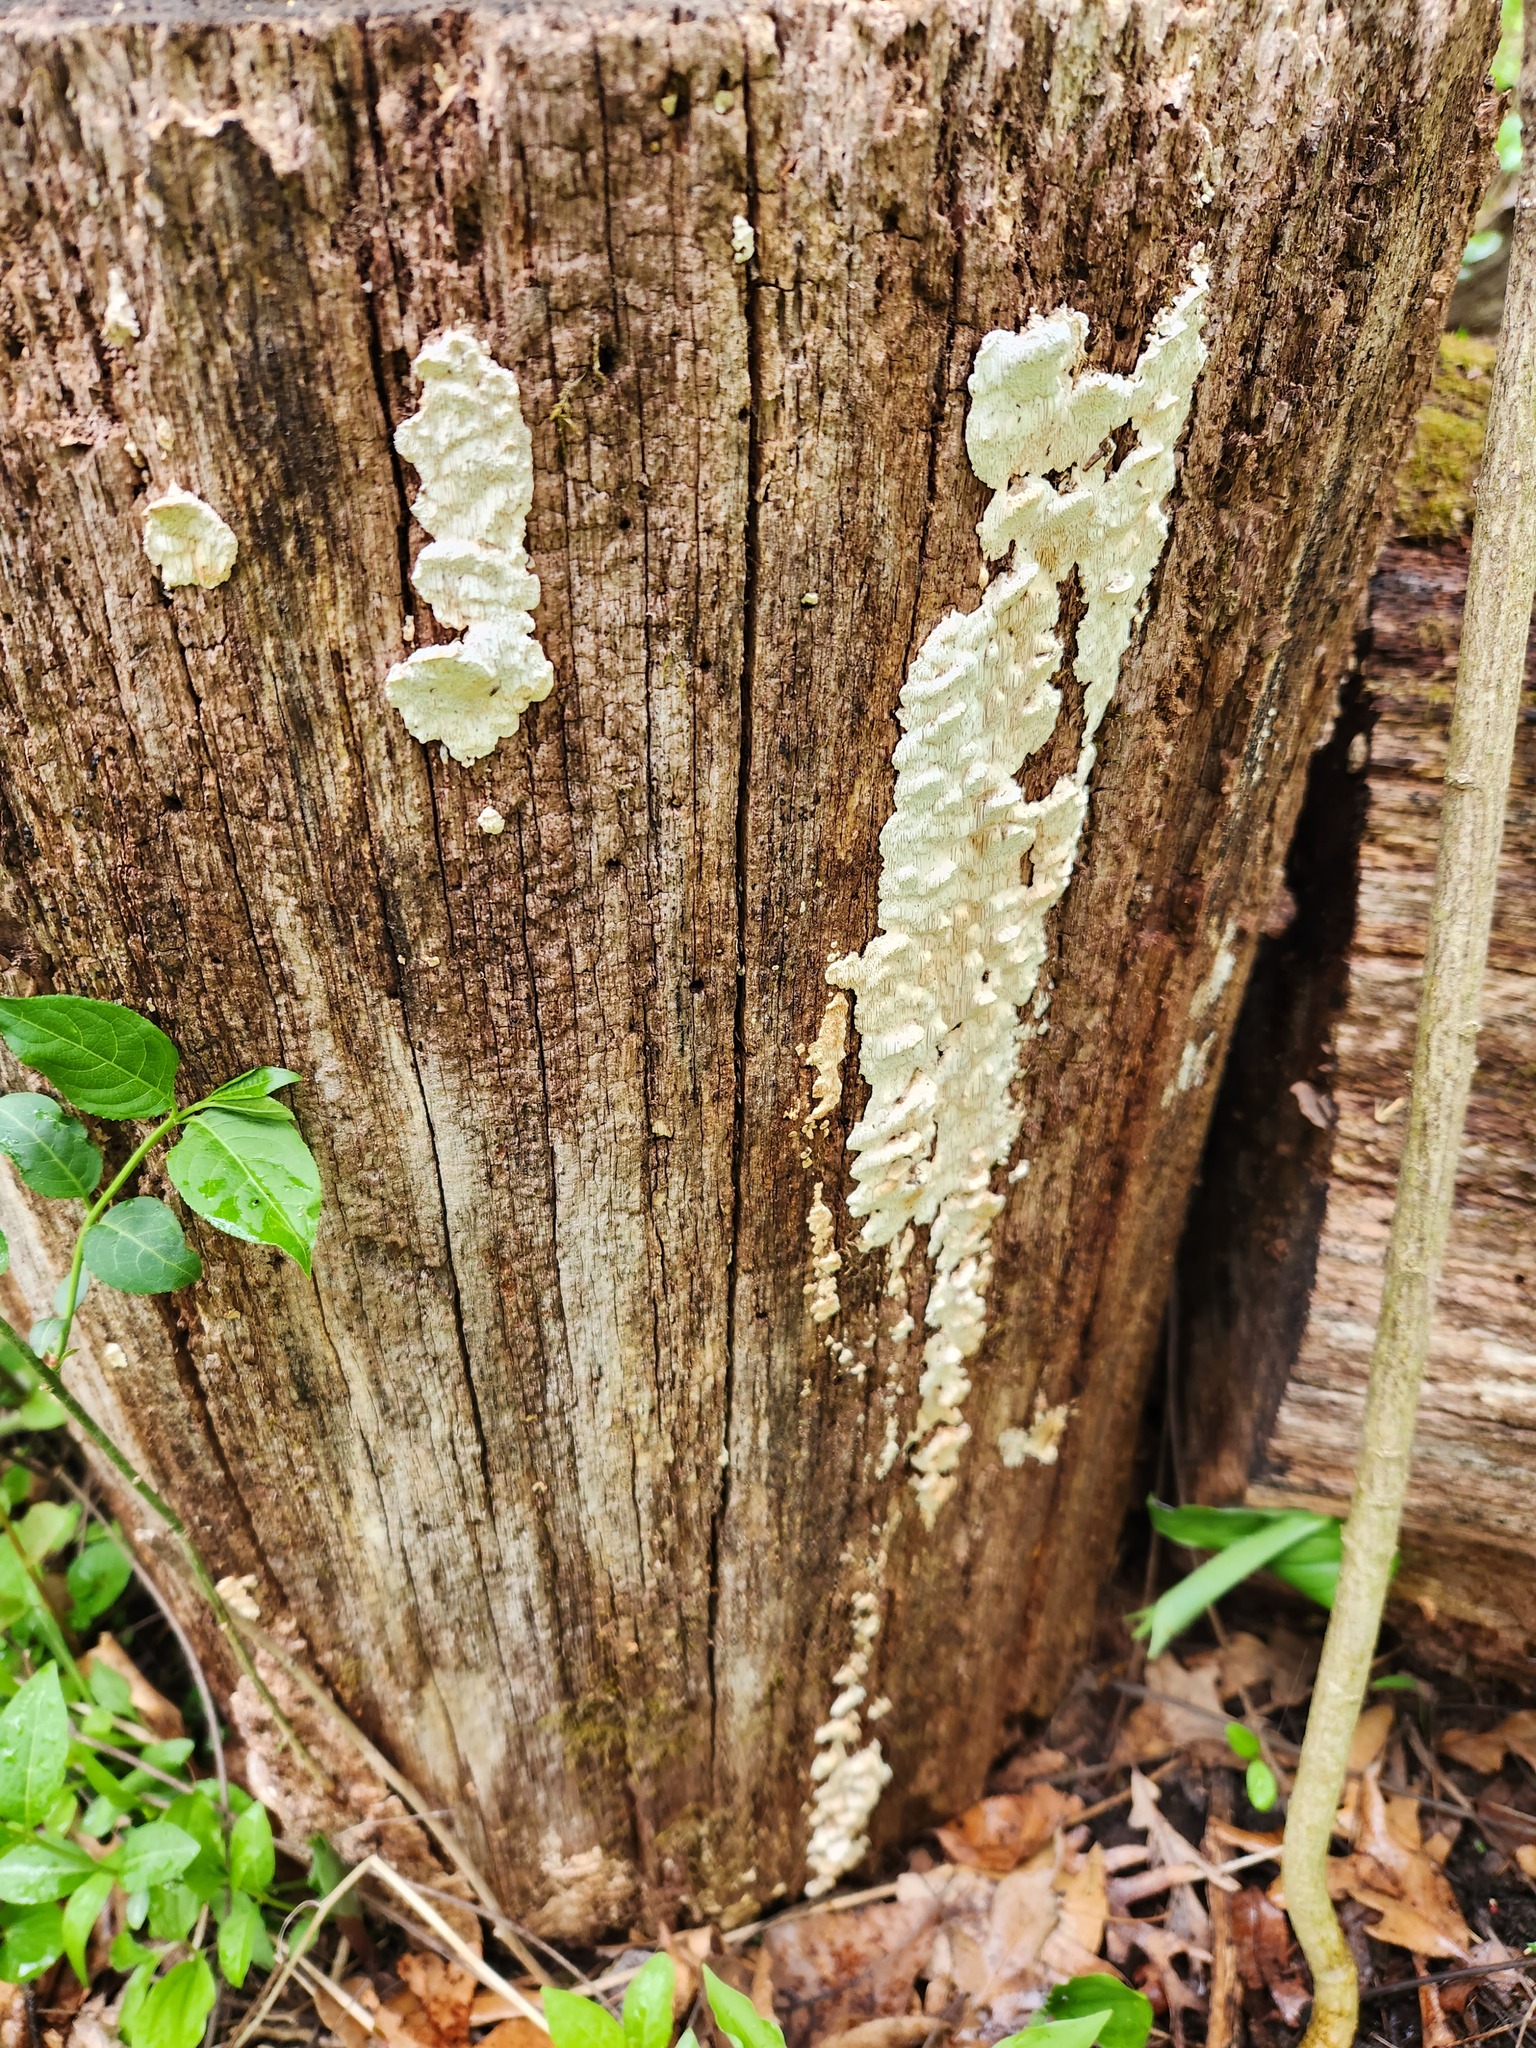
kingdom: Fungi
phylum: Basidiomycota
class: Agaricomycetes
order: Polyporales
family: Irpicaceae
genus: Irpex
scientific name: Irpex lacteus
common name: Milk-white toothed polypore
